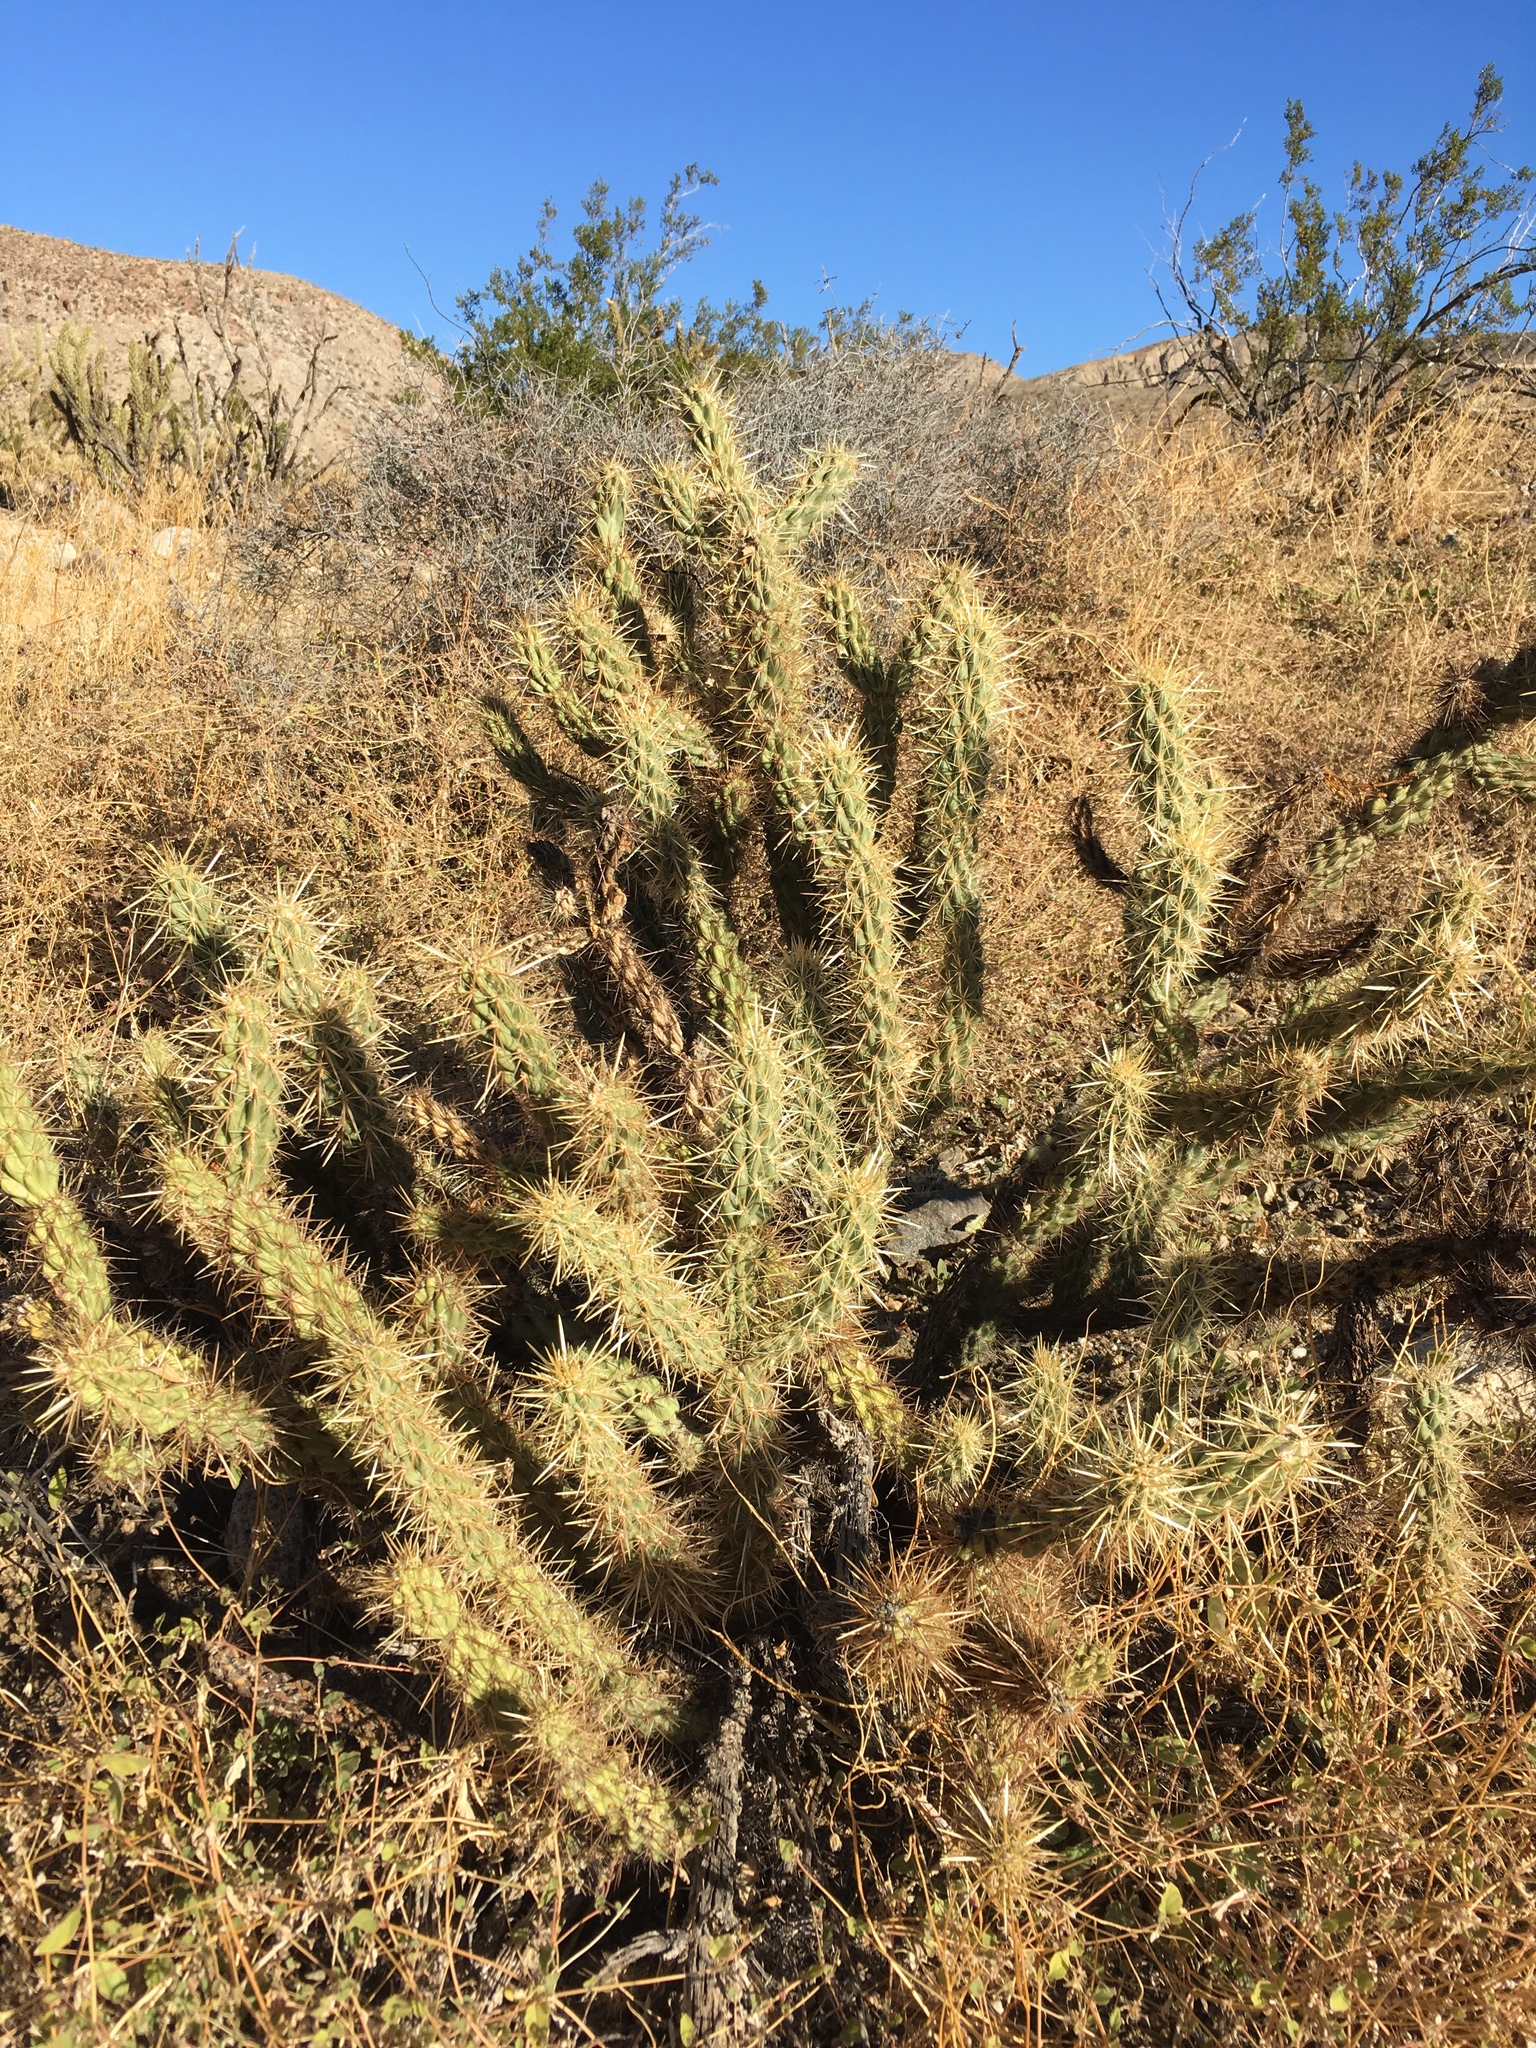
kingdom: Plantae
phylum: Tracheophyta
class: Magnoliopsida
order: Caryophyllales
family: Cactaceae
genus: Cylindropuntia
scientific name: Cylindropuntia ganderi
